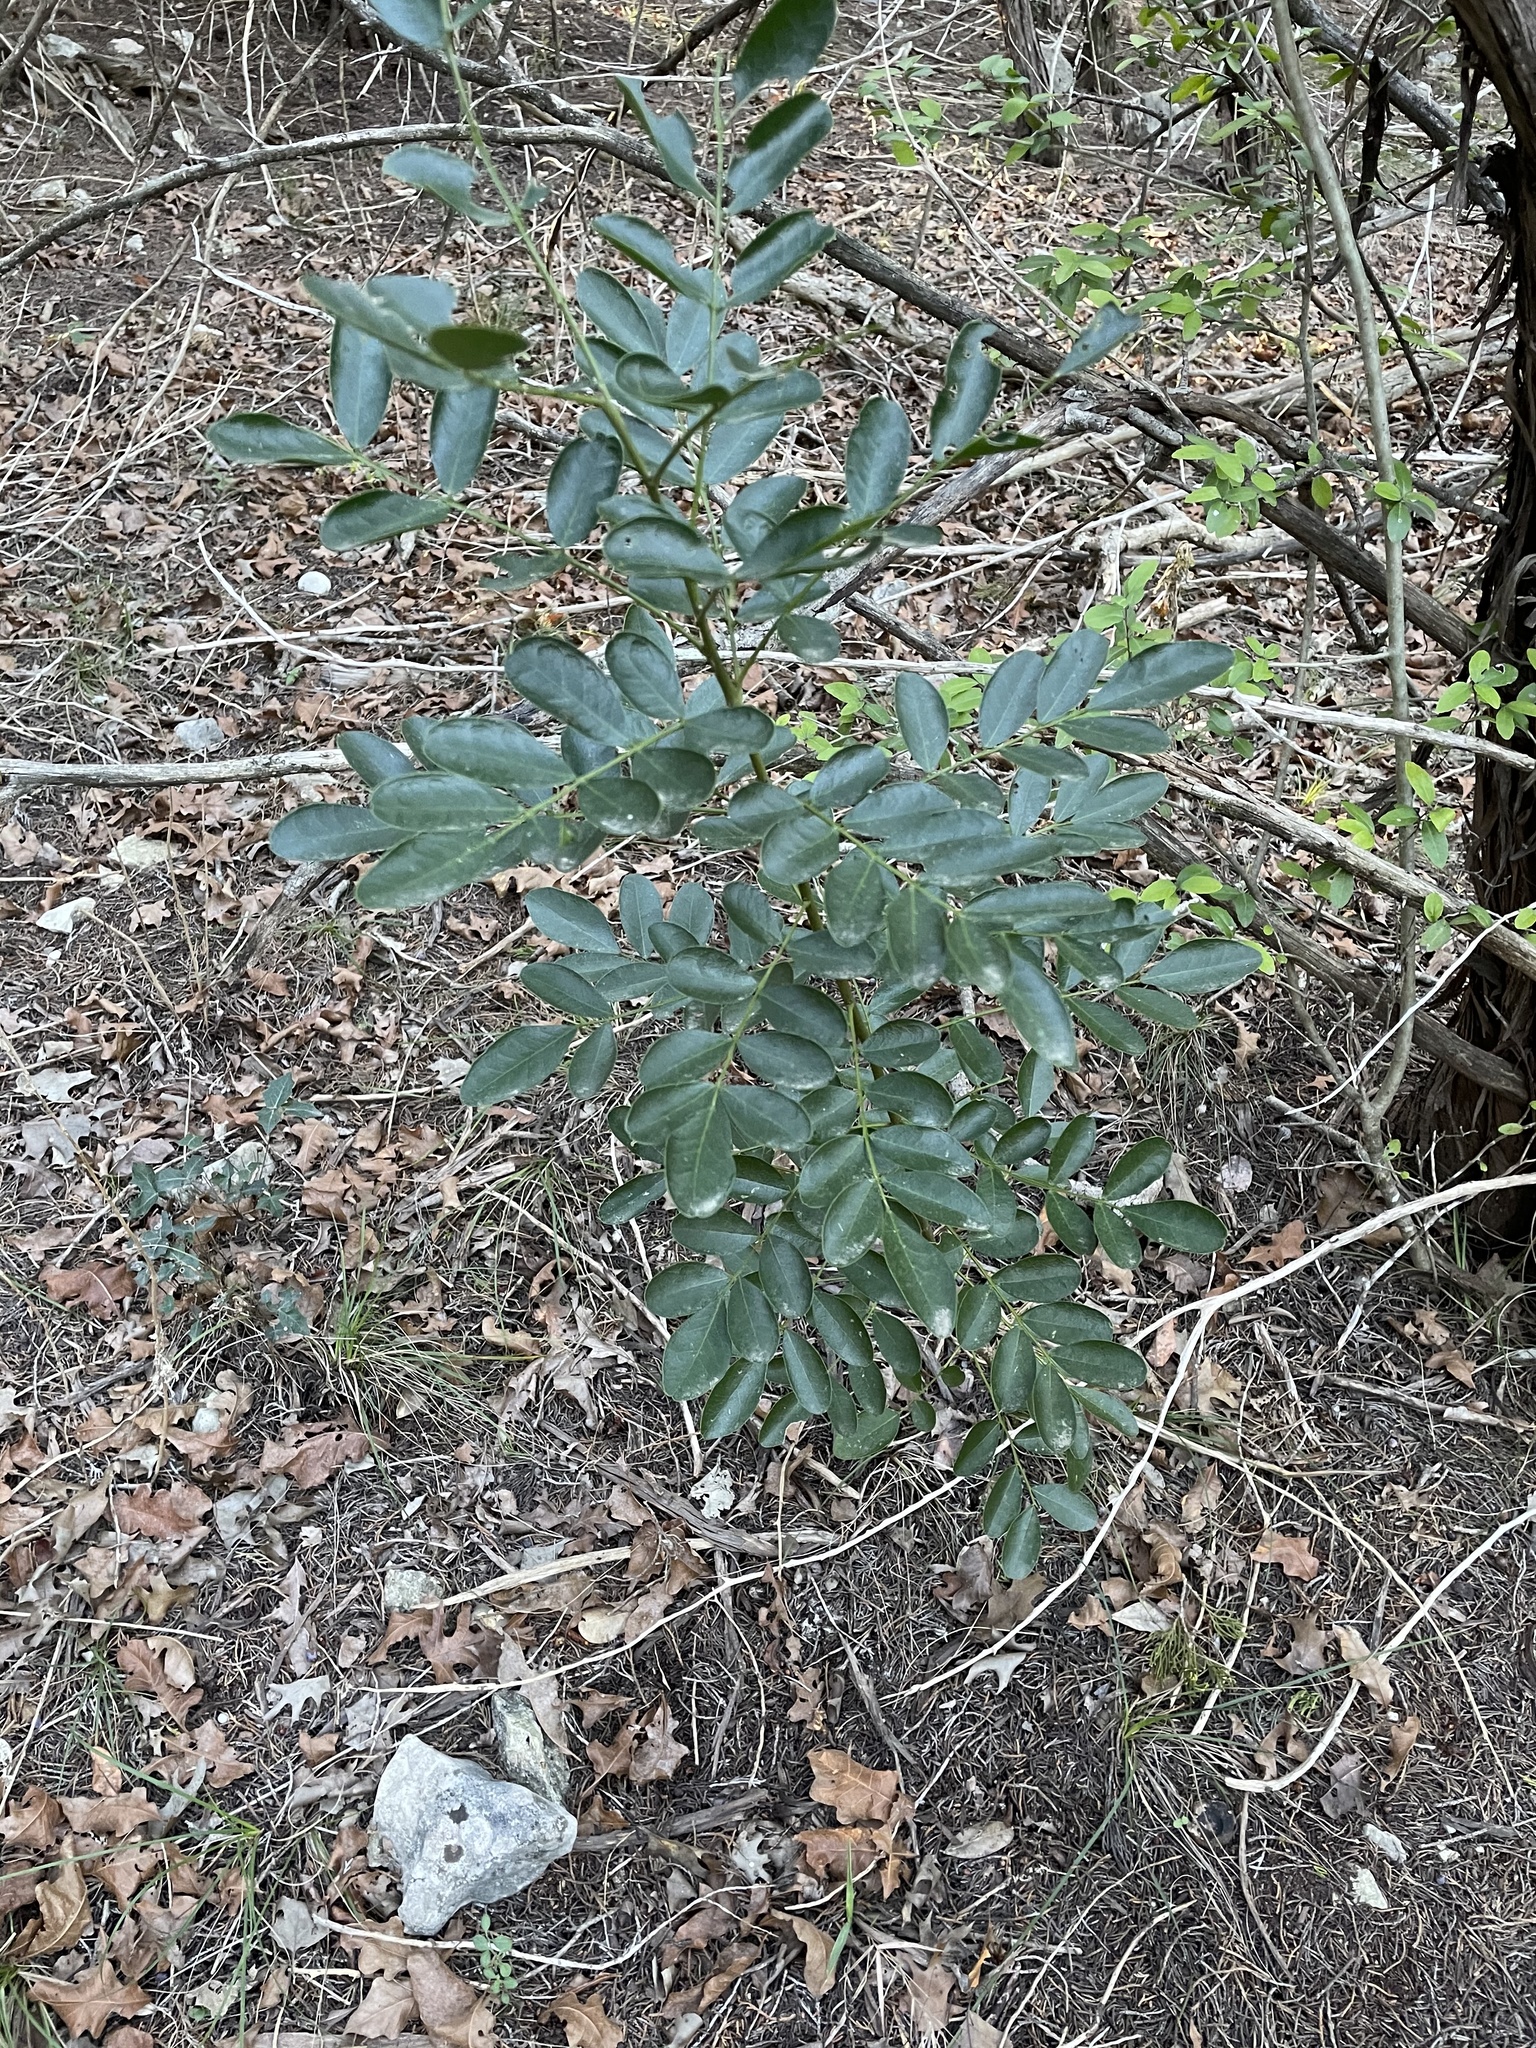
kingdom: Plantae
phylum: Tracheophyta
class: Magnoliopsida
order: Fabales
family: Fabaceae
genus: Dermatophyllum
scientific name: Dermatophyllum secundiflorum
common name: Texas-mountain-laurel
